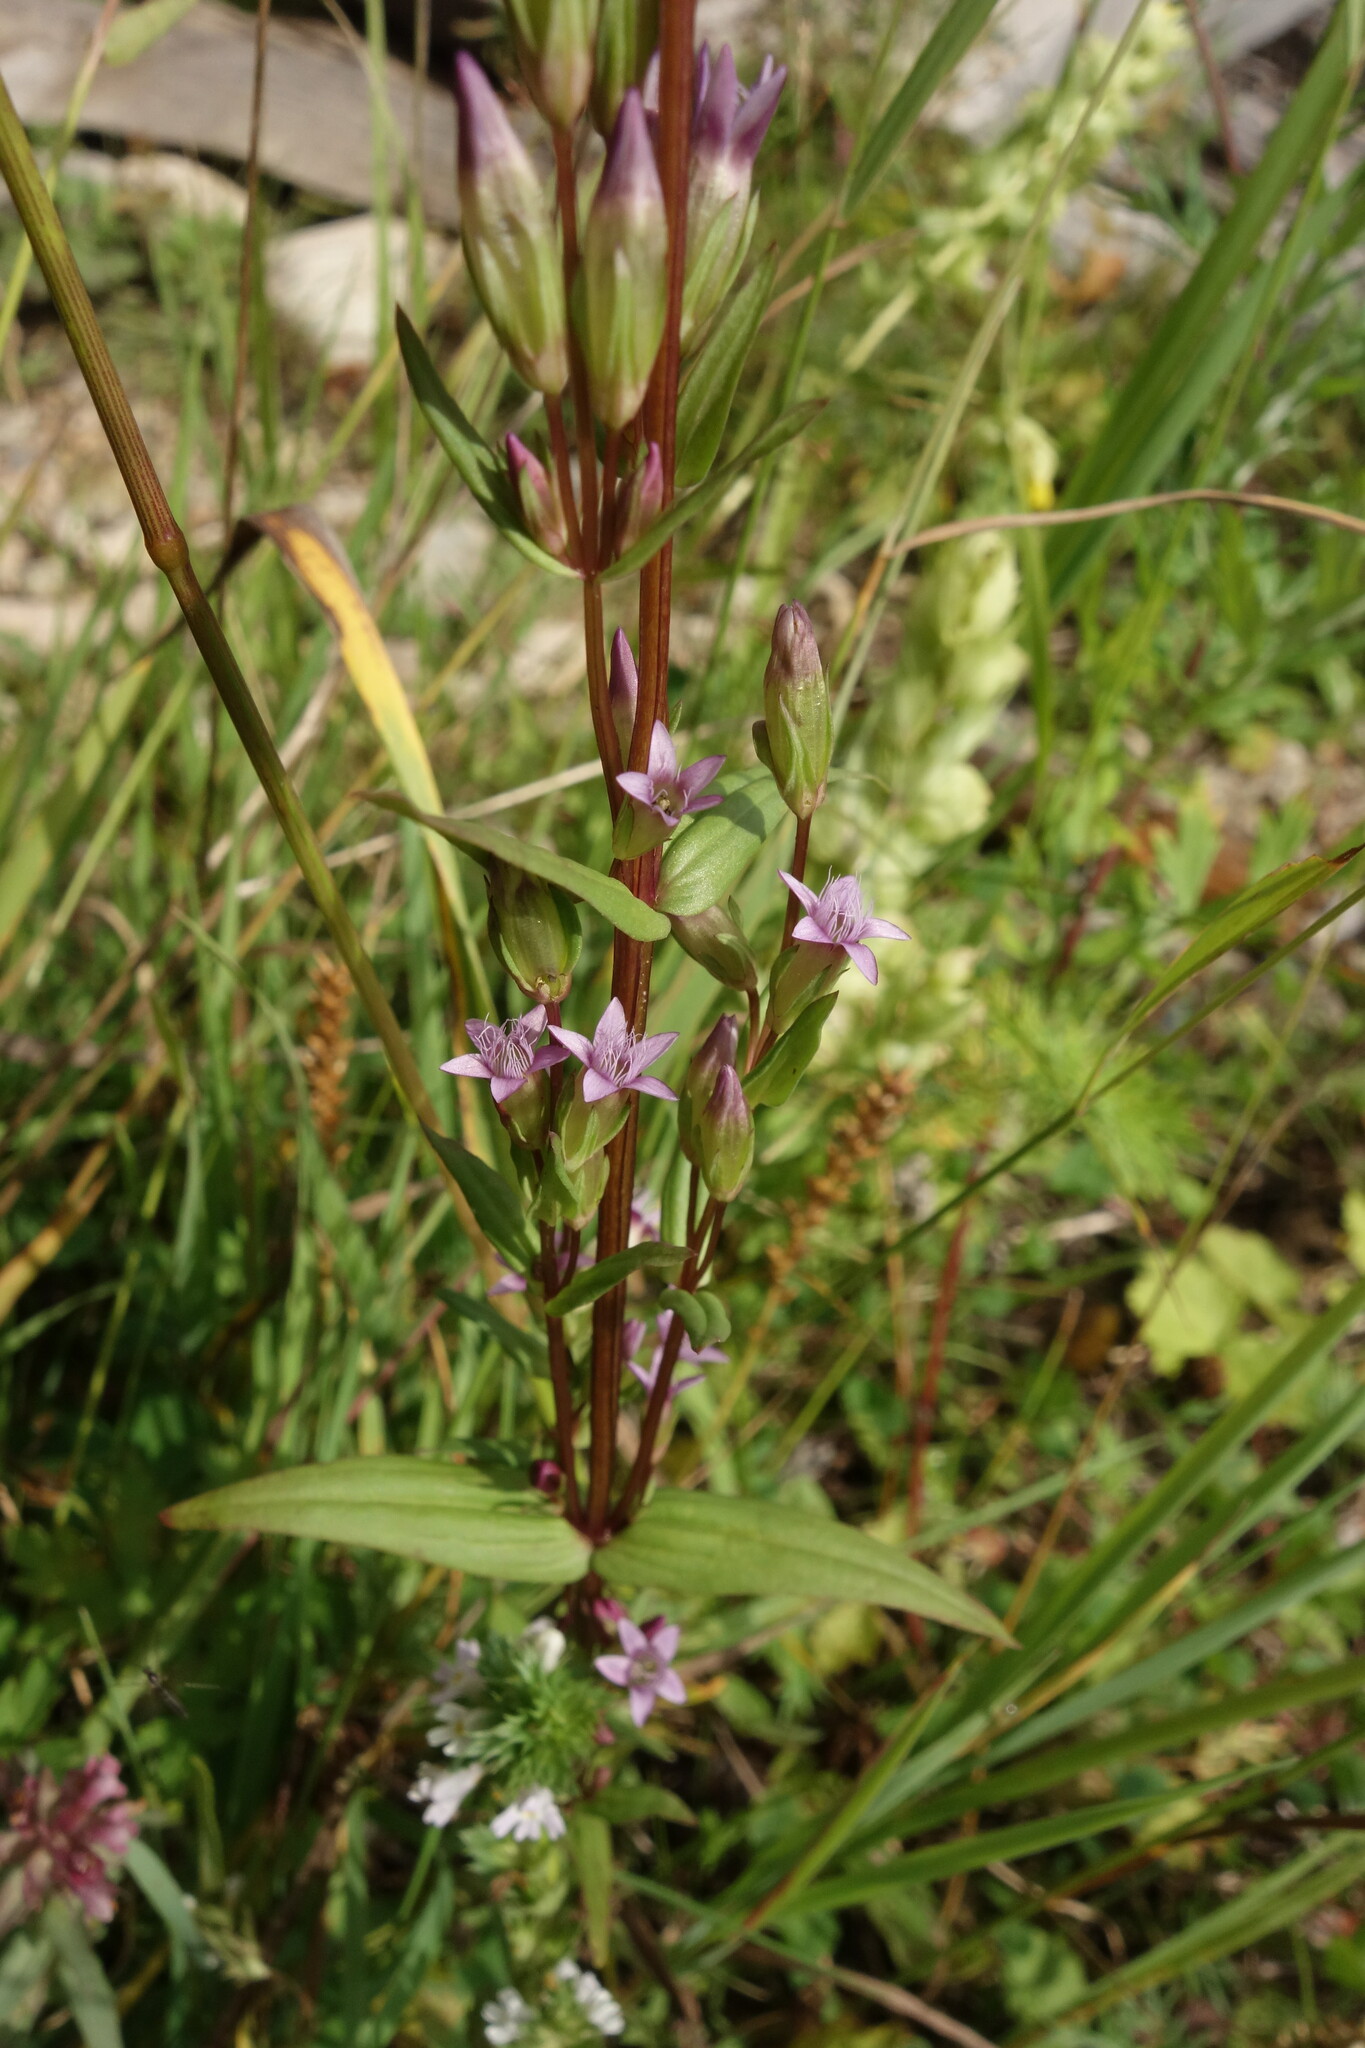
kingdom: Plantae
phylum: Tracheophyta
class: Magnoliopsida
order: Gentianales
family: Gentianaceae
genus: Gentianella
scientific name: Gentianella amarella
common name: Autumn gentian
